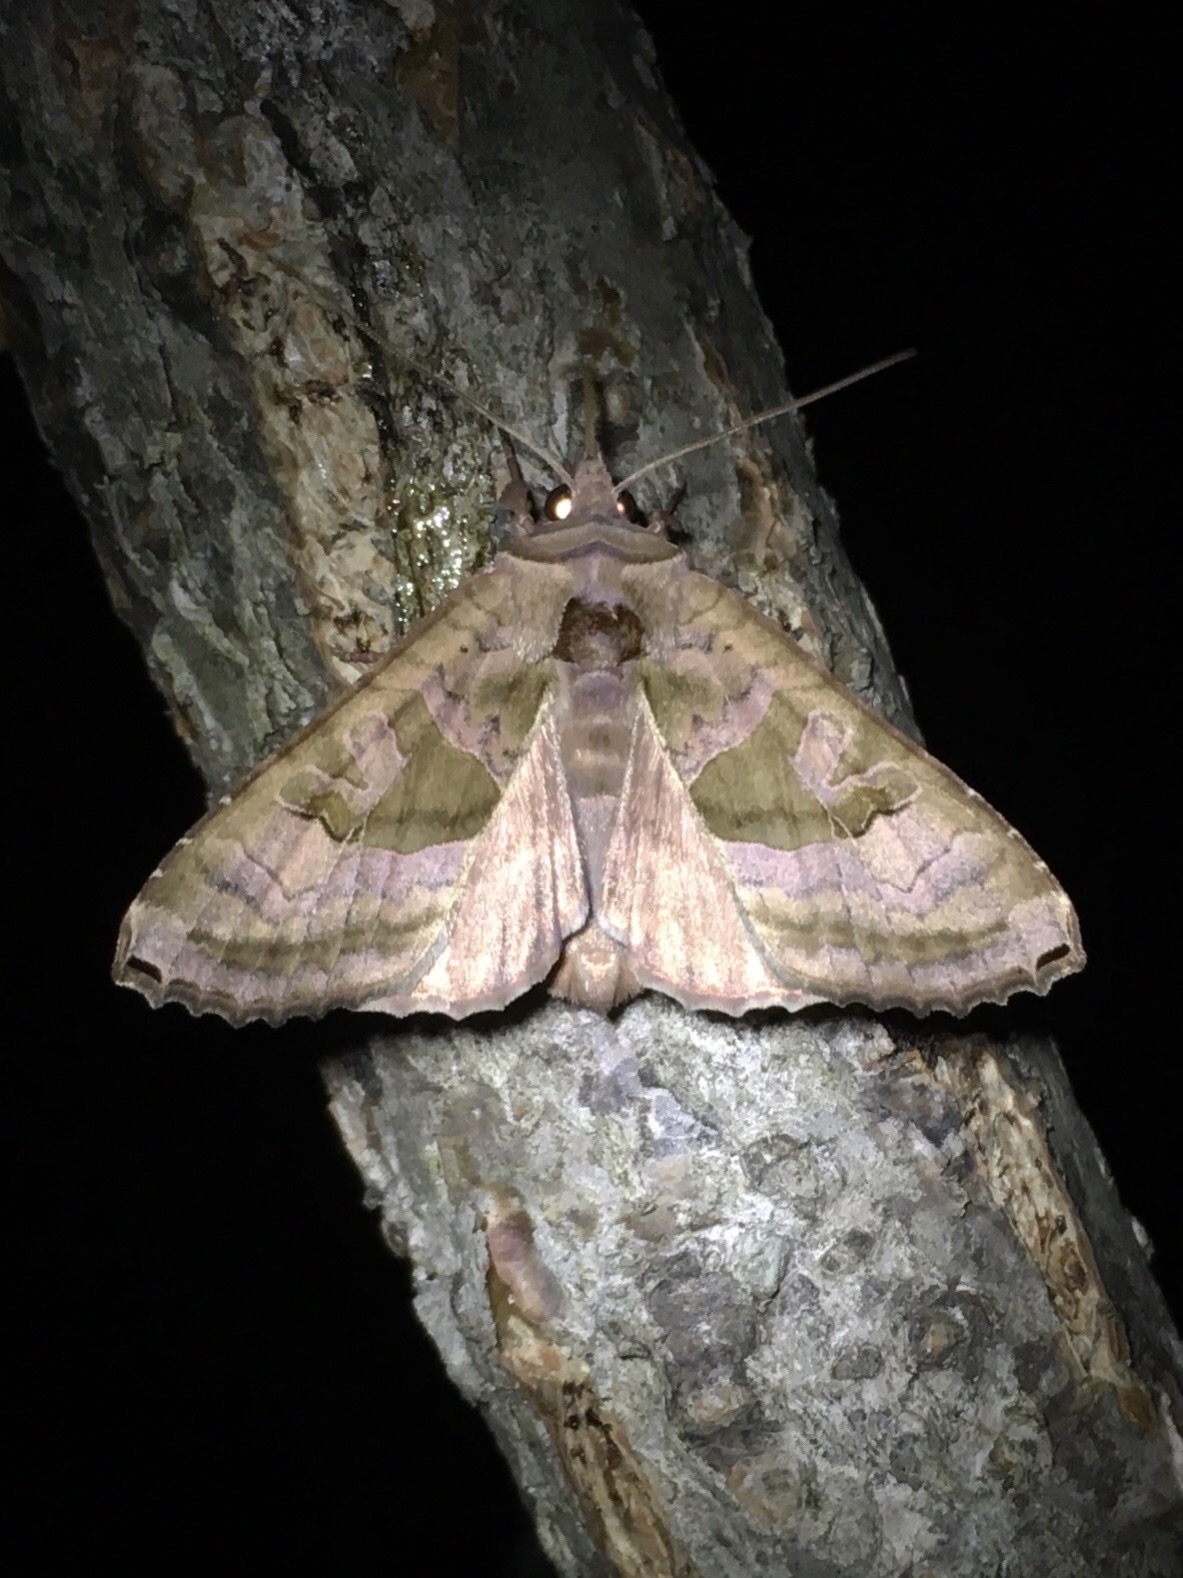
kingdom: Animalia
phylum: Arthropoda
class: Insecta
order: Lepidoptera
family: Noctuidae
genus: Phlogophora
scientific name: Phlogophora periculosa
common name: Brown angle shades
